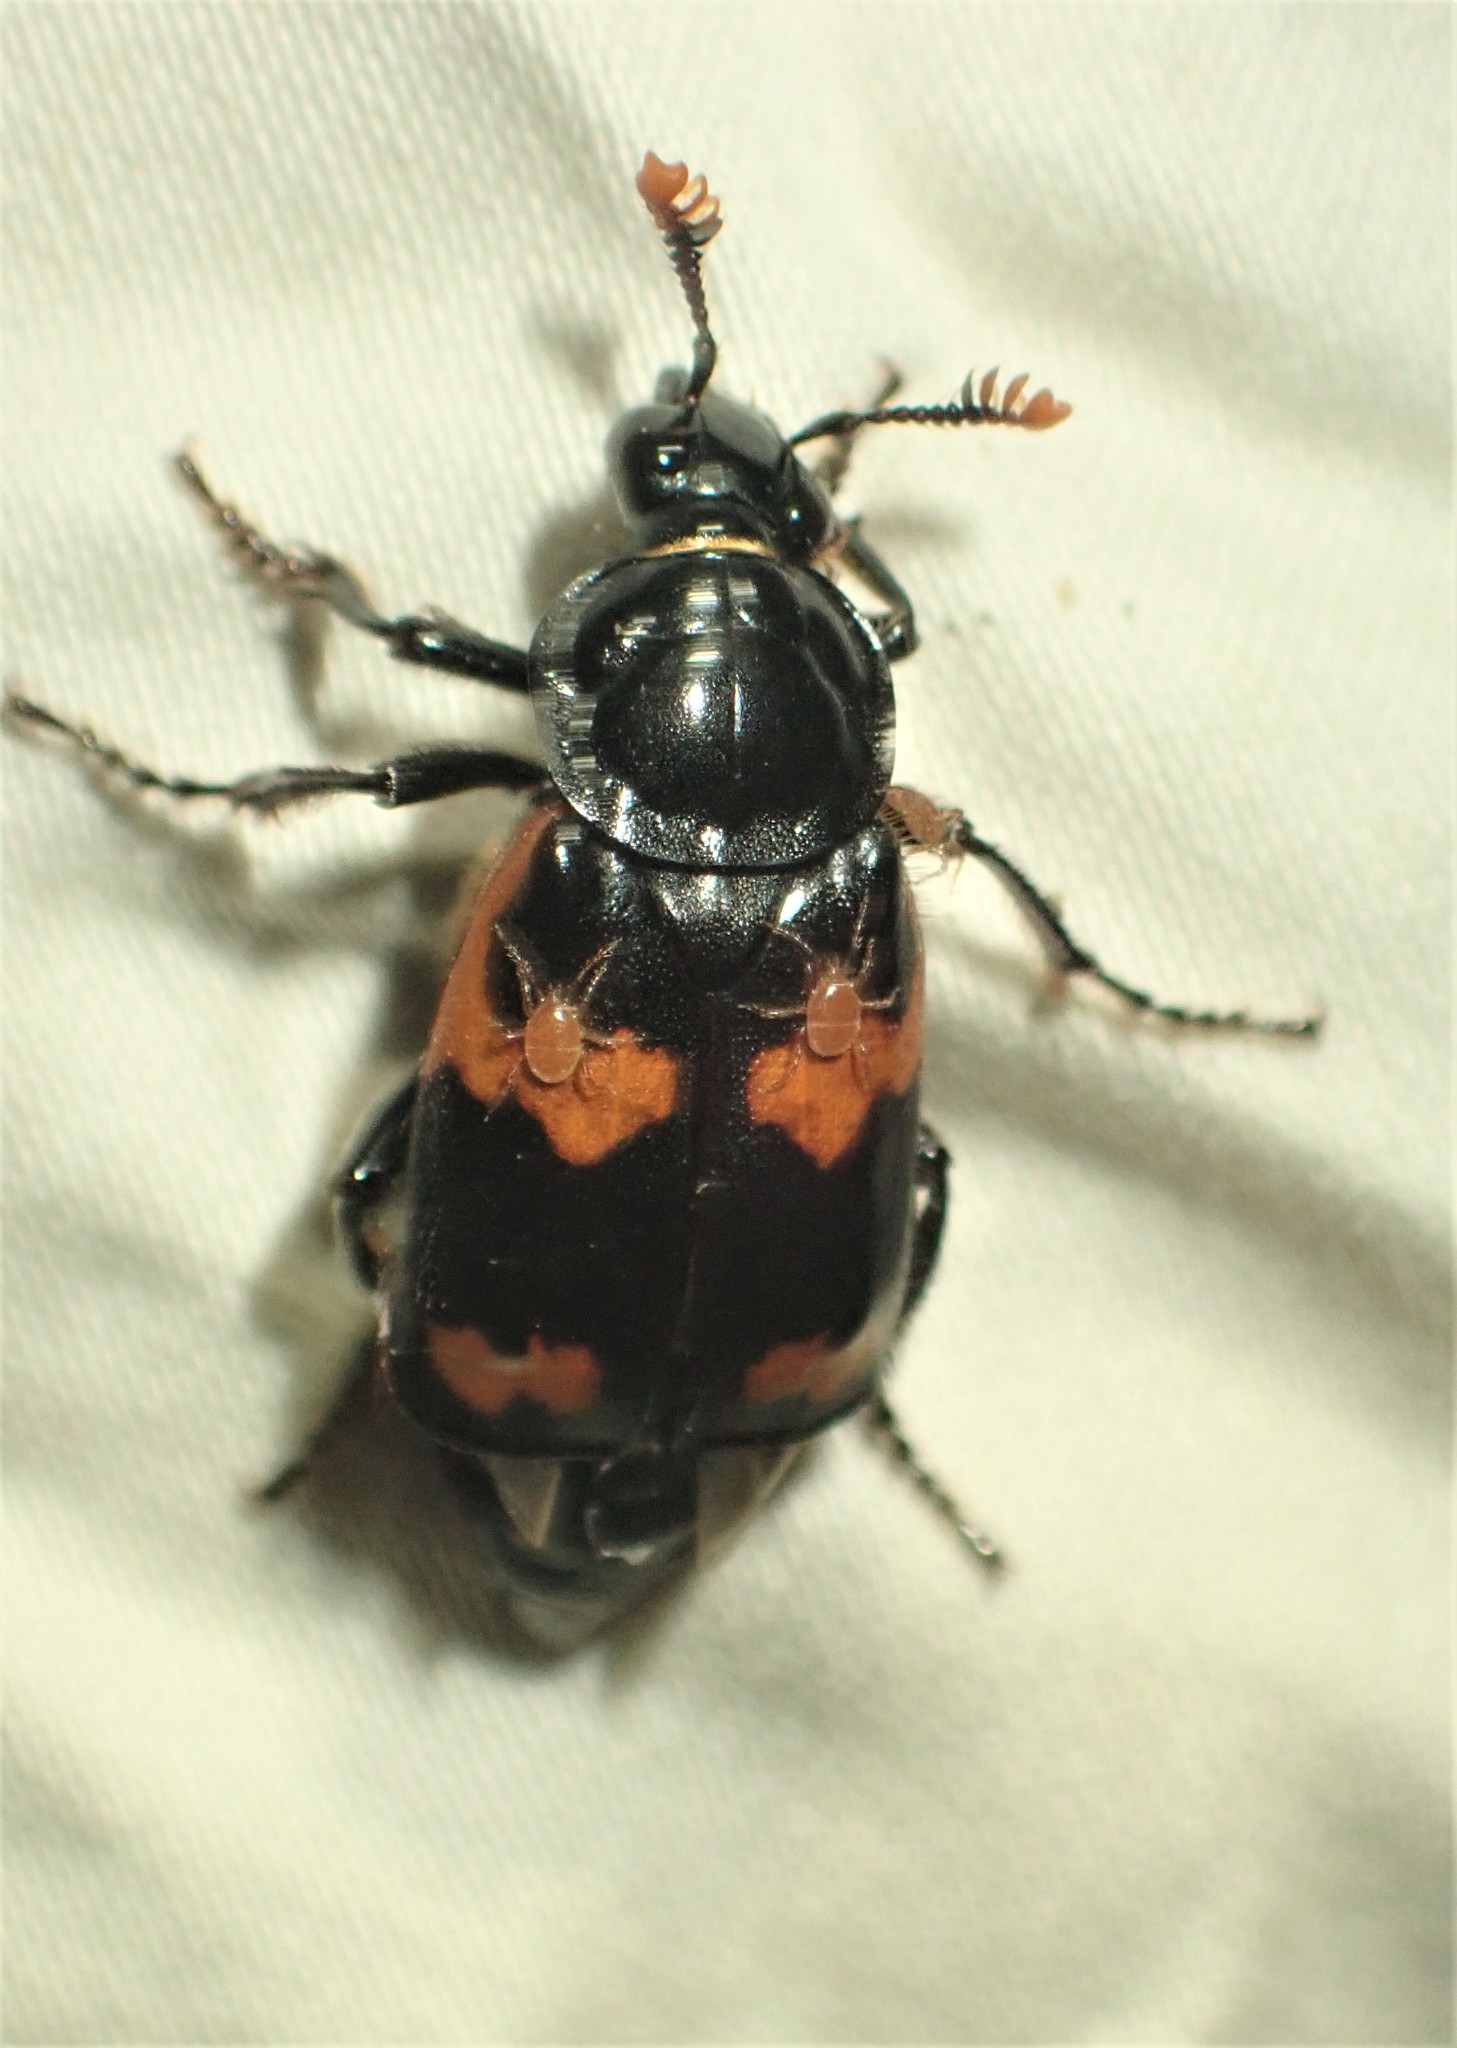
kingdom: Animalia
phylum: Arthropoda
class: Insecta
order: Coleoptera
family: Staphylinidae
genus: Nicrophorus
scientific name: Nicrophorus sayi
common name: Say's burying beetle
